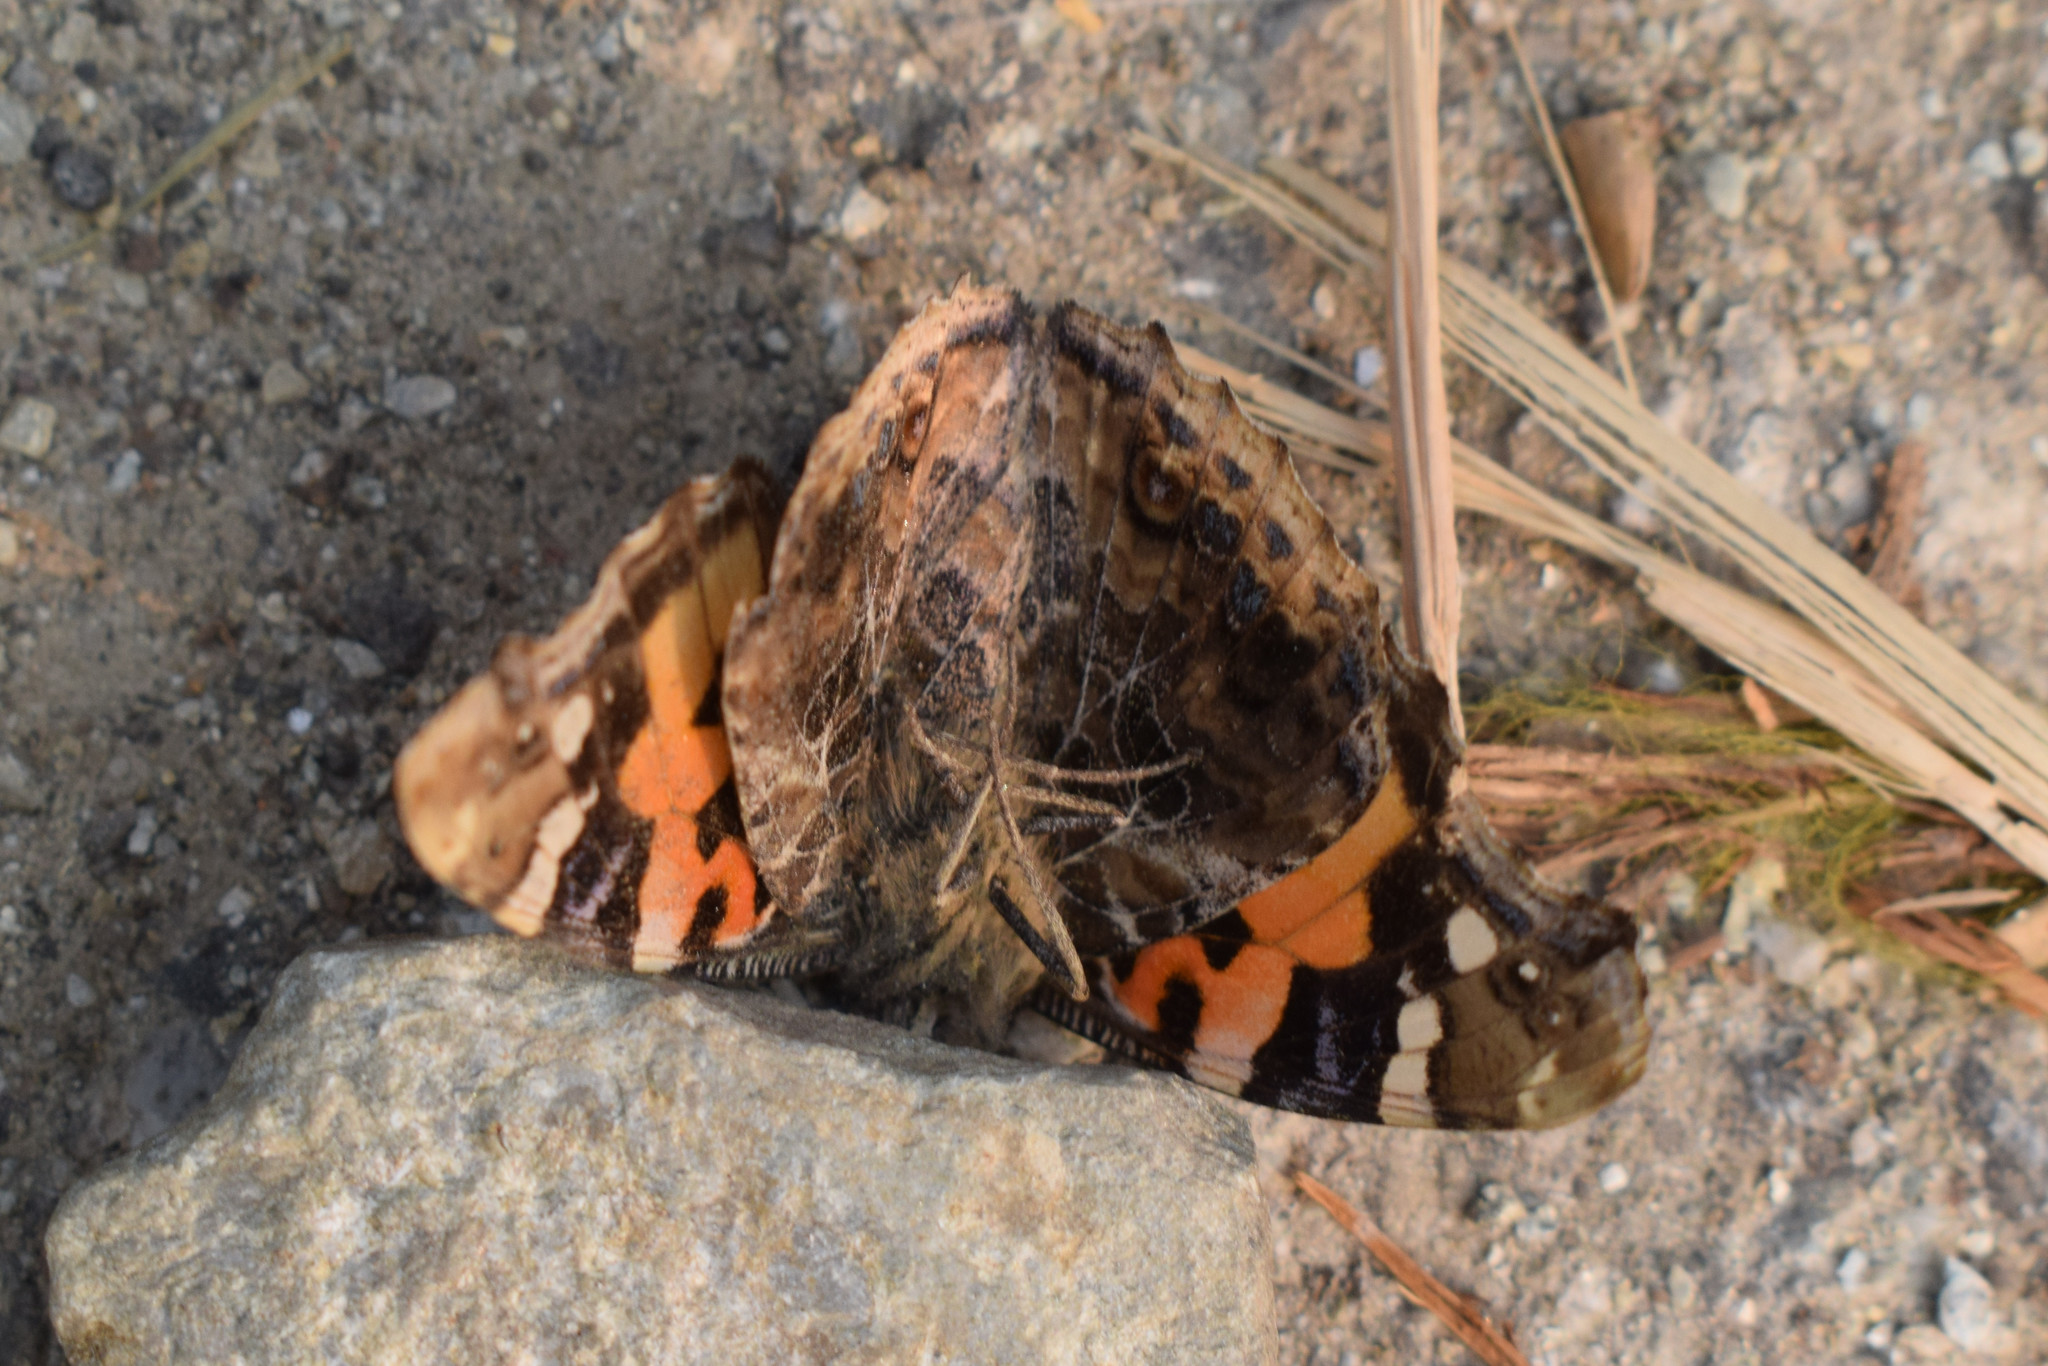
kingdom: Animalia
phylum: Arthropoda
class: Insecta
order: Lepidoptera
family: Nymphalidae
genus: Vanessa
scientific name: Vanessa indica
